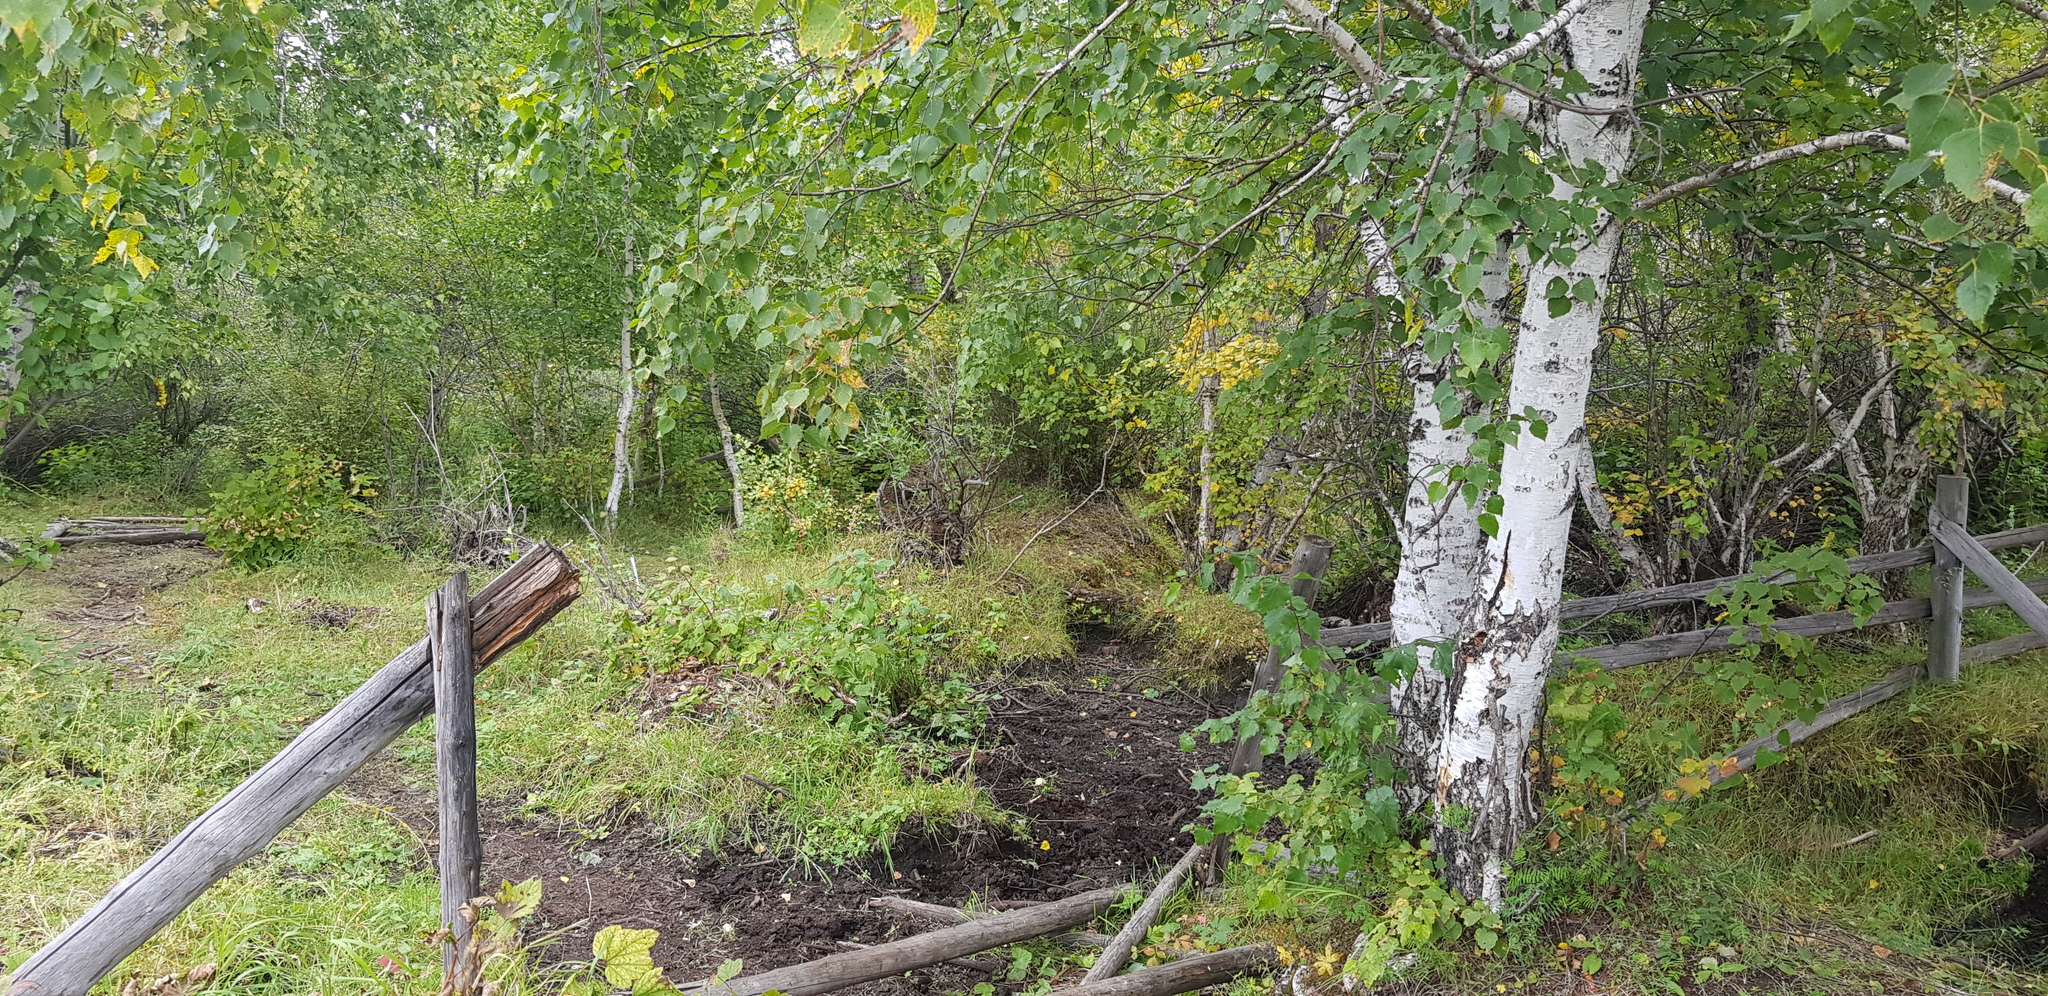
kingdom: Plantae
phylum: Tracheophyta
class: Magnoliopsida
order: Fagales
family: Betulaceae
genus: Betula
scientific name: Betula pendula
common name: Silver birch
